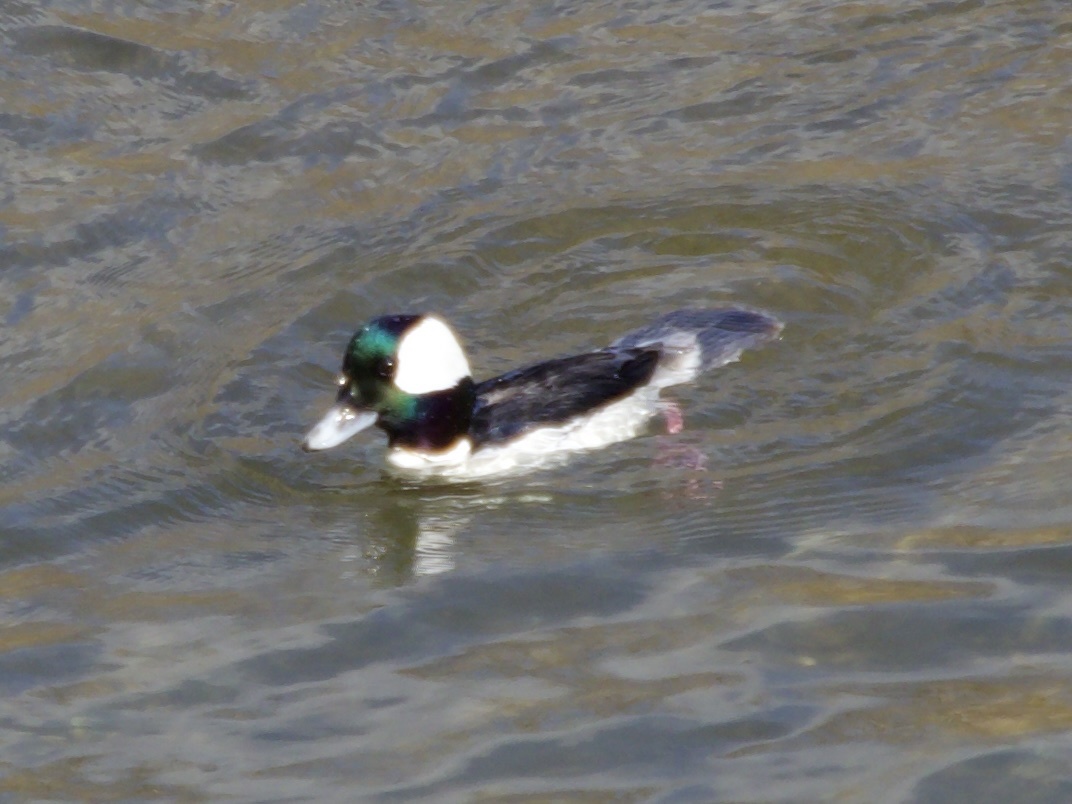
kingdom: Animalia
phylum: Chordata
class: Aves
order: Anseriformes
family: Anatidae
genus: Bucephala
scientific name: Bucephala albeola
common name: Bufflehead
